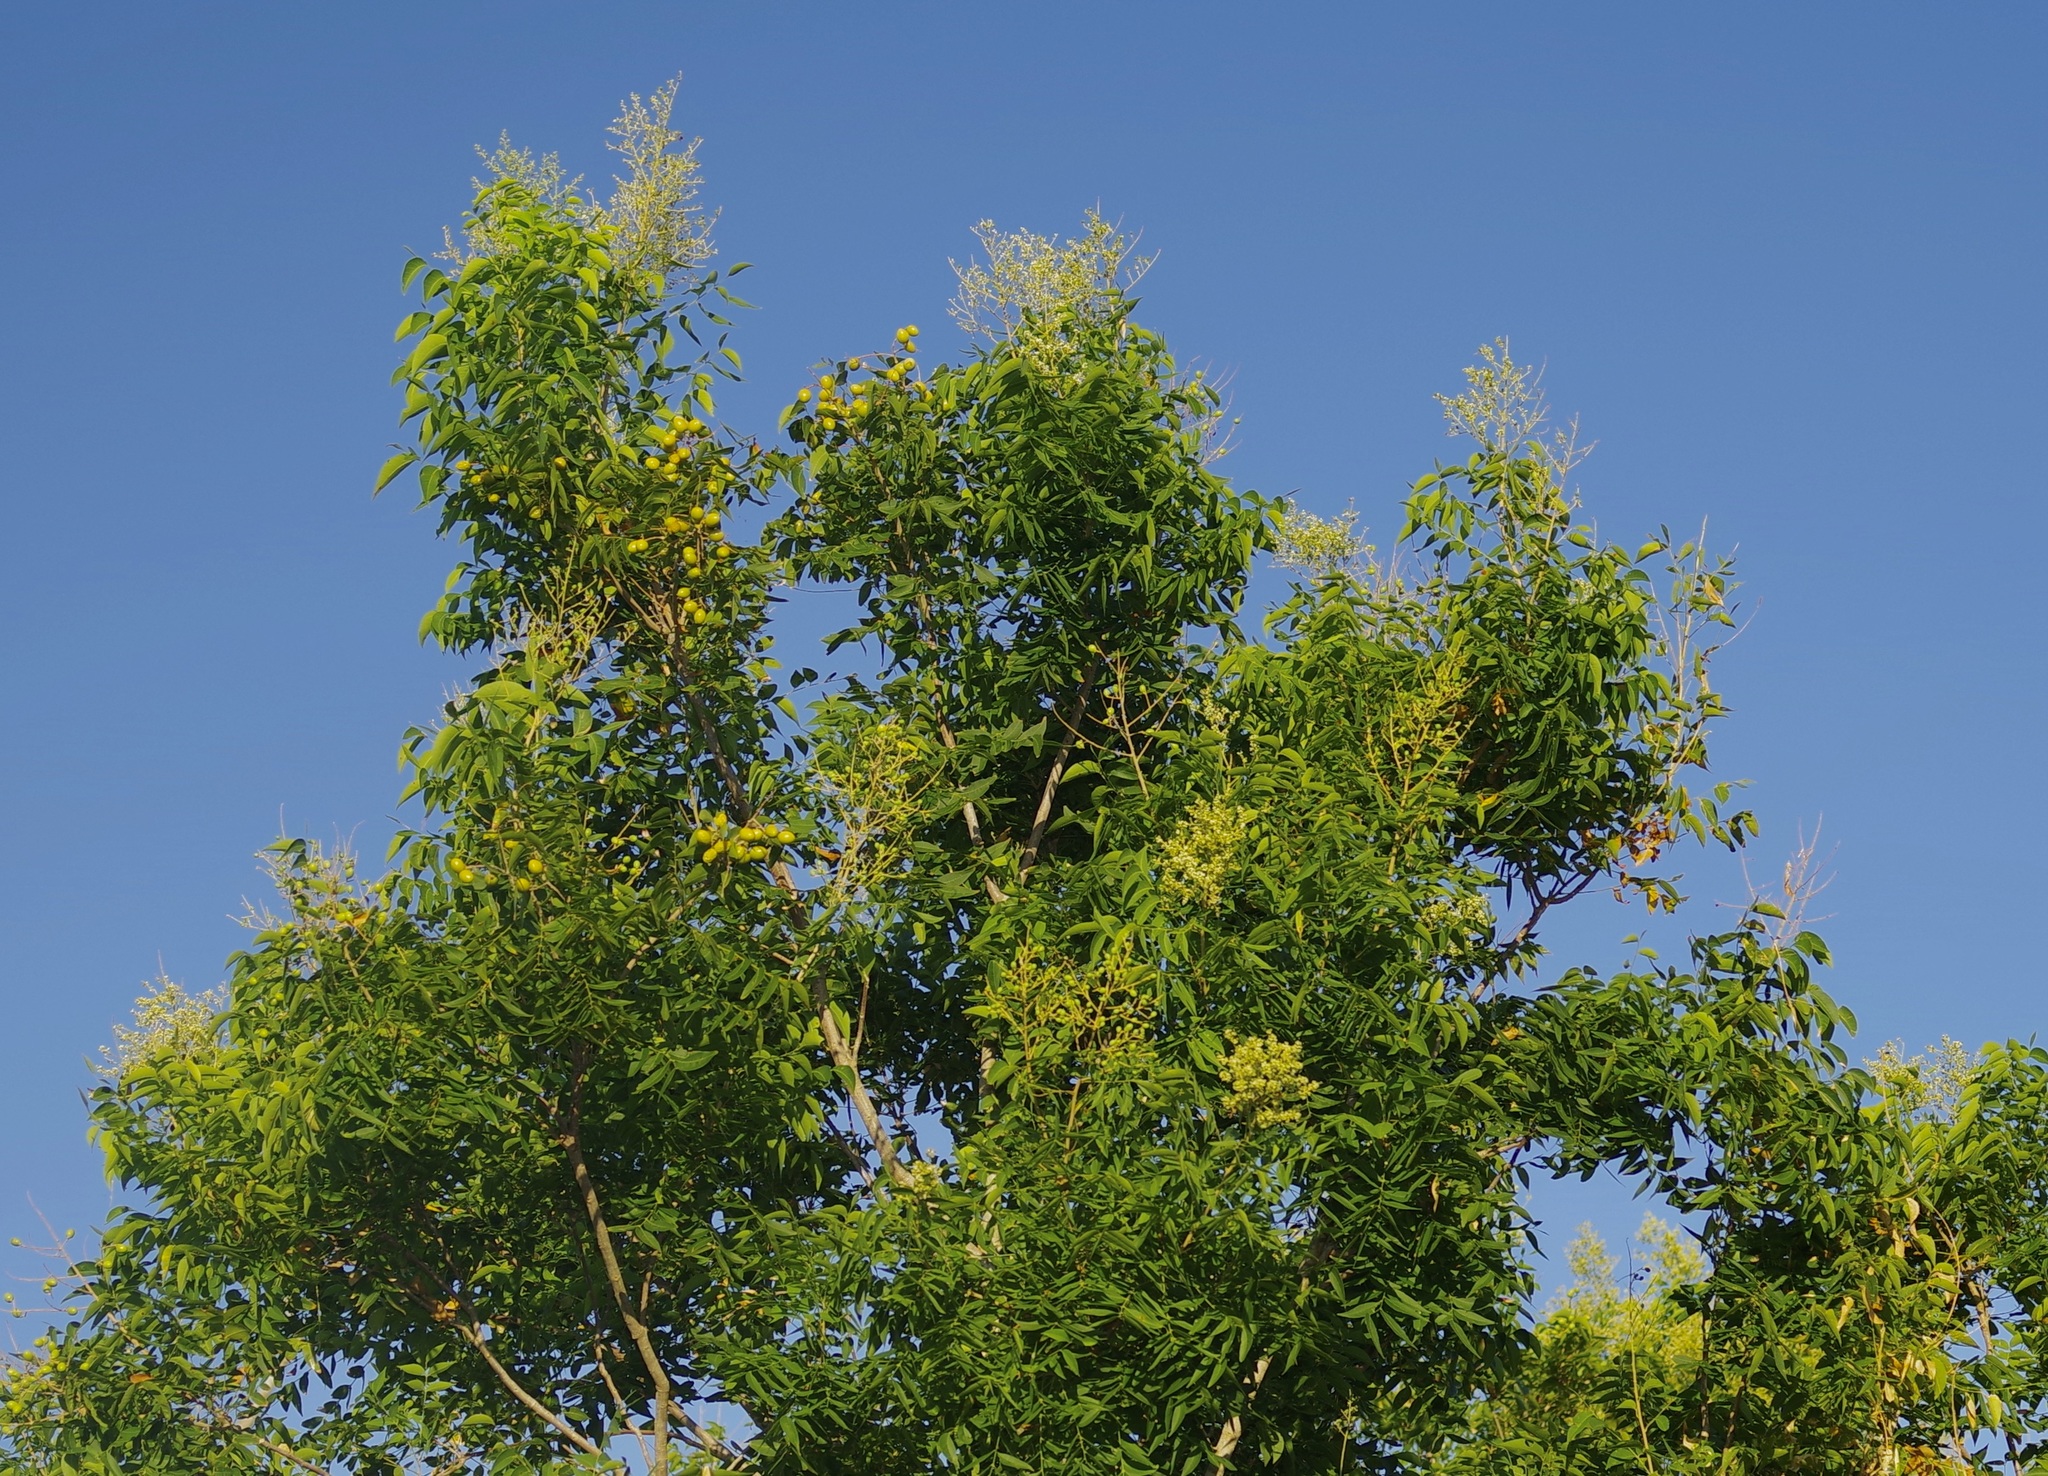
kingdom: Plantae
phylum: Tracheophyta
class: Magnoliopsida
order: Sapindales
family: Sapindaceae
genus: Sapindus
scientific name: Sapindus drummondii
